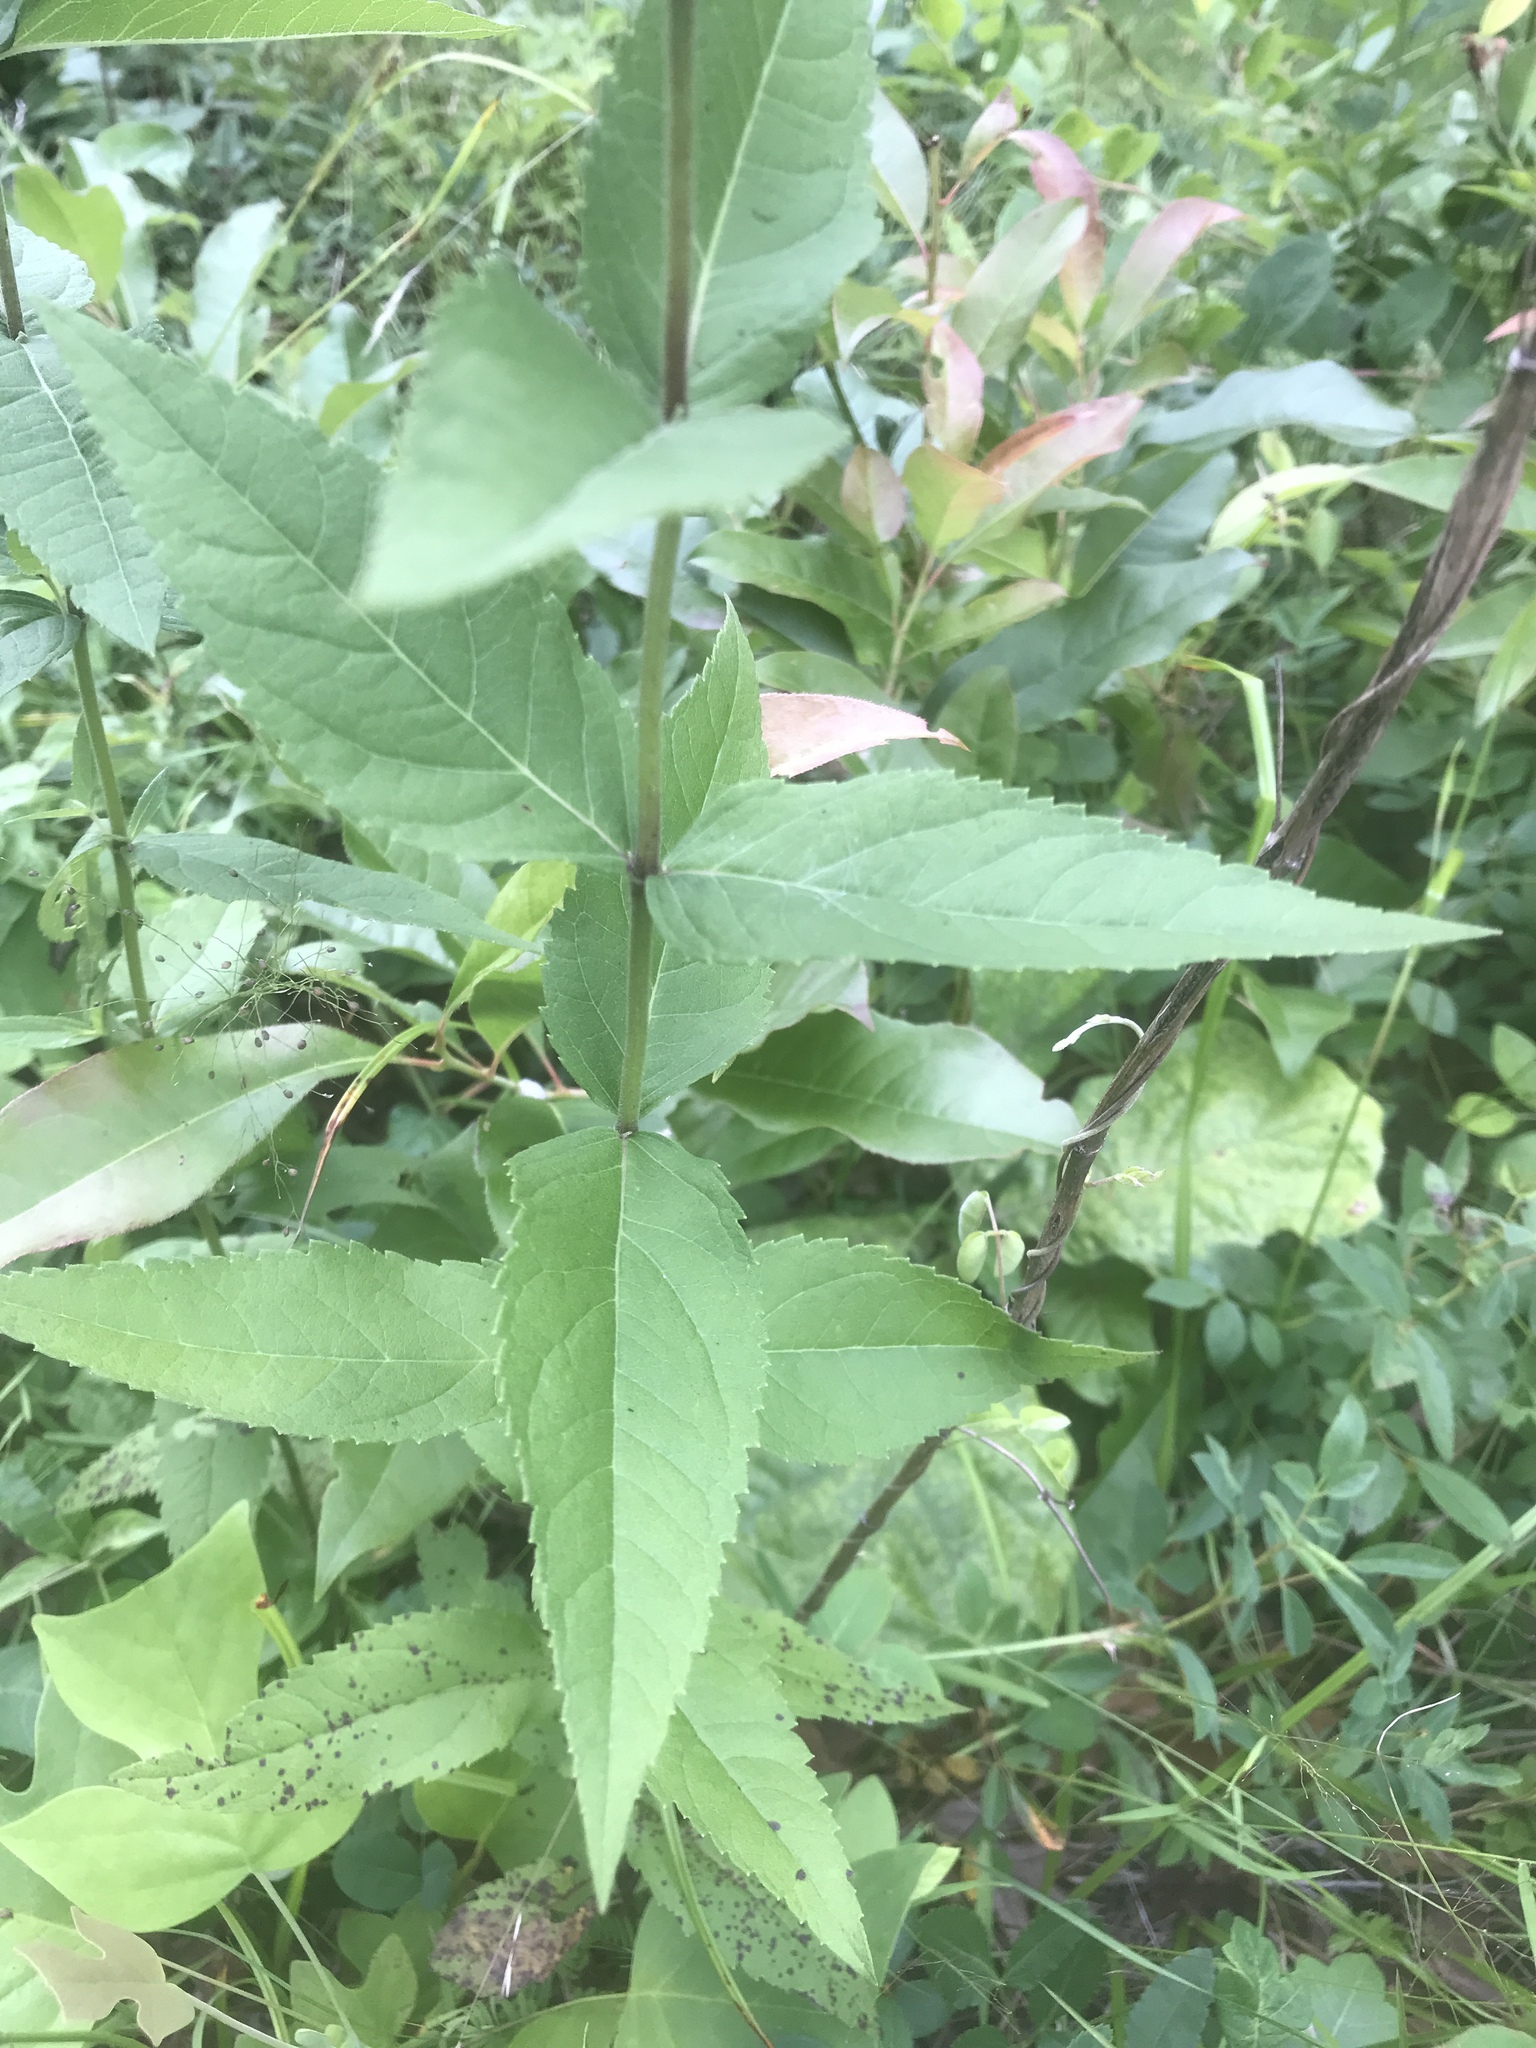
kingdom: Plantae
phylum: Tracheophyta
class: Magnoliopsida
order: Asterales
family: Asteraceae
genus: Eupatorium
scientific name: Eupatorium godfreyanum
